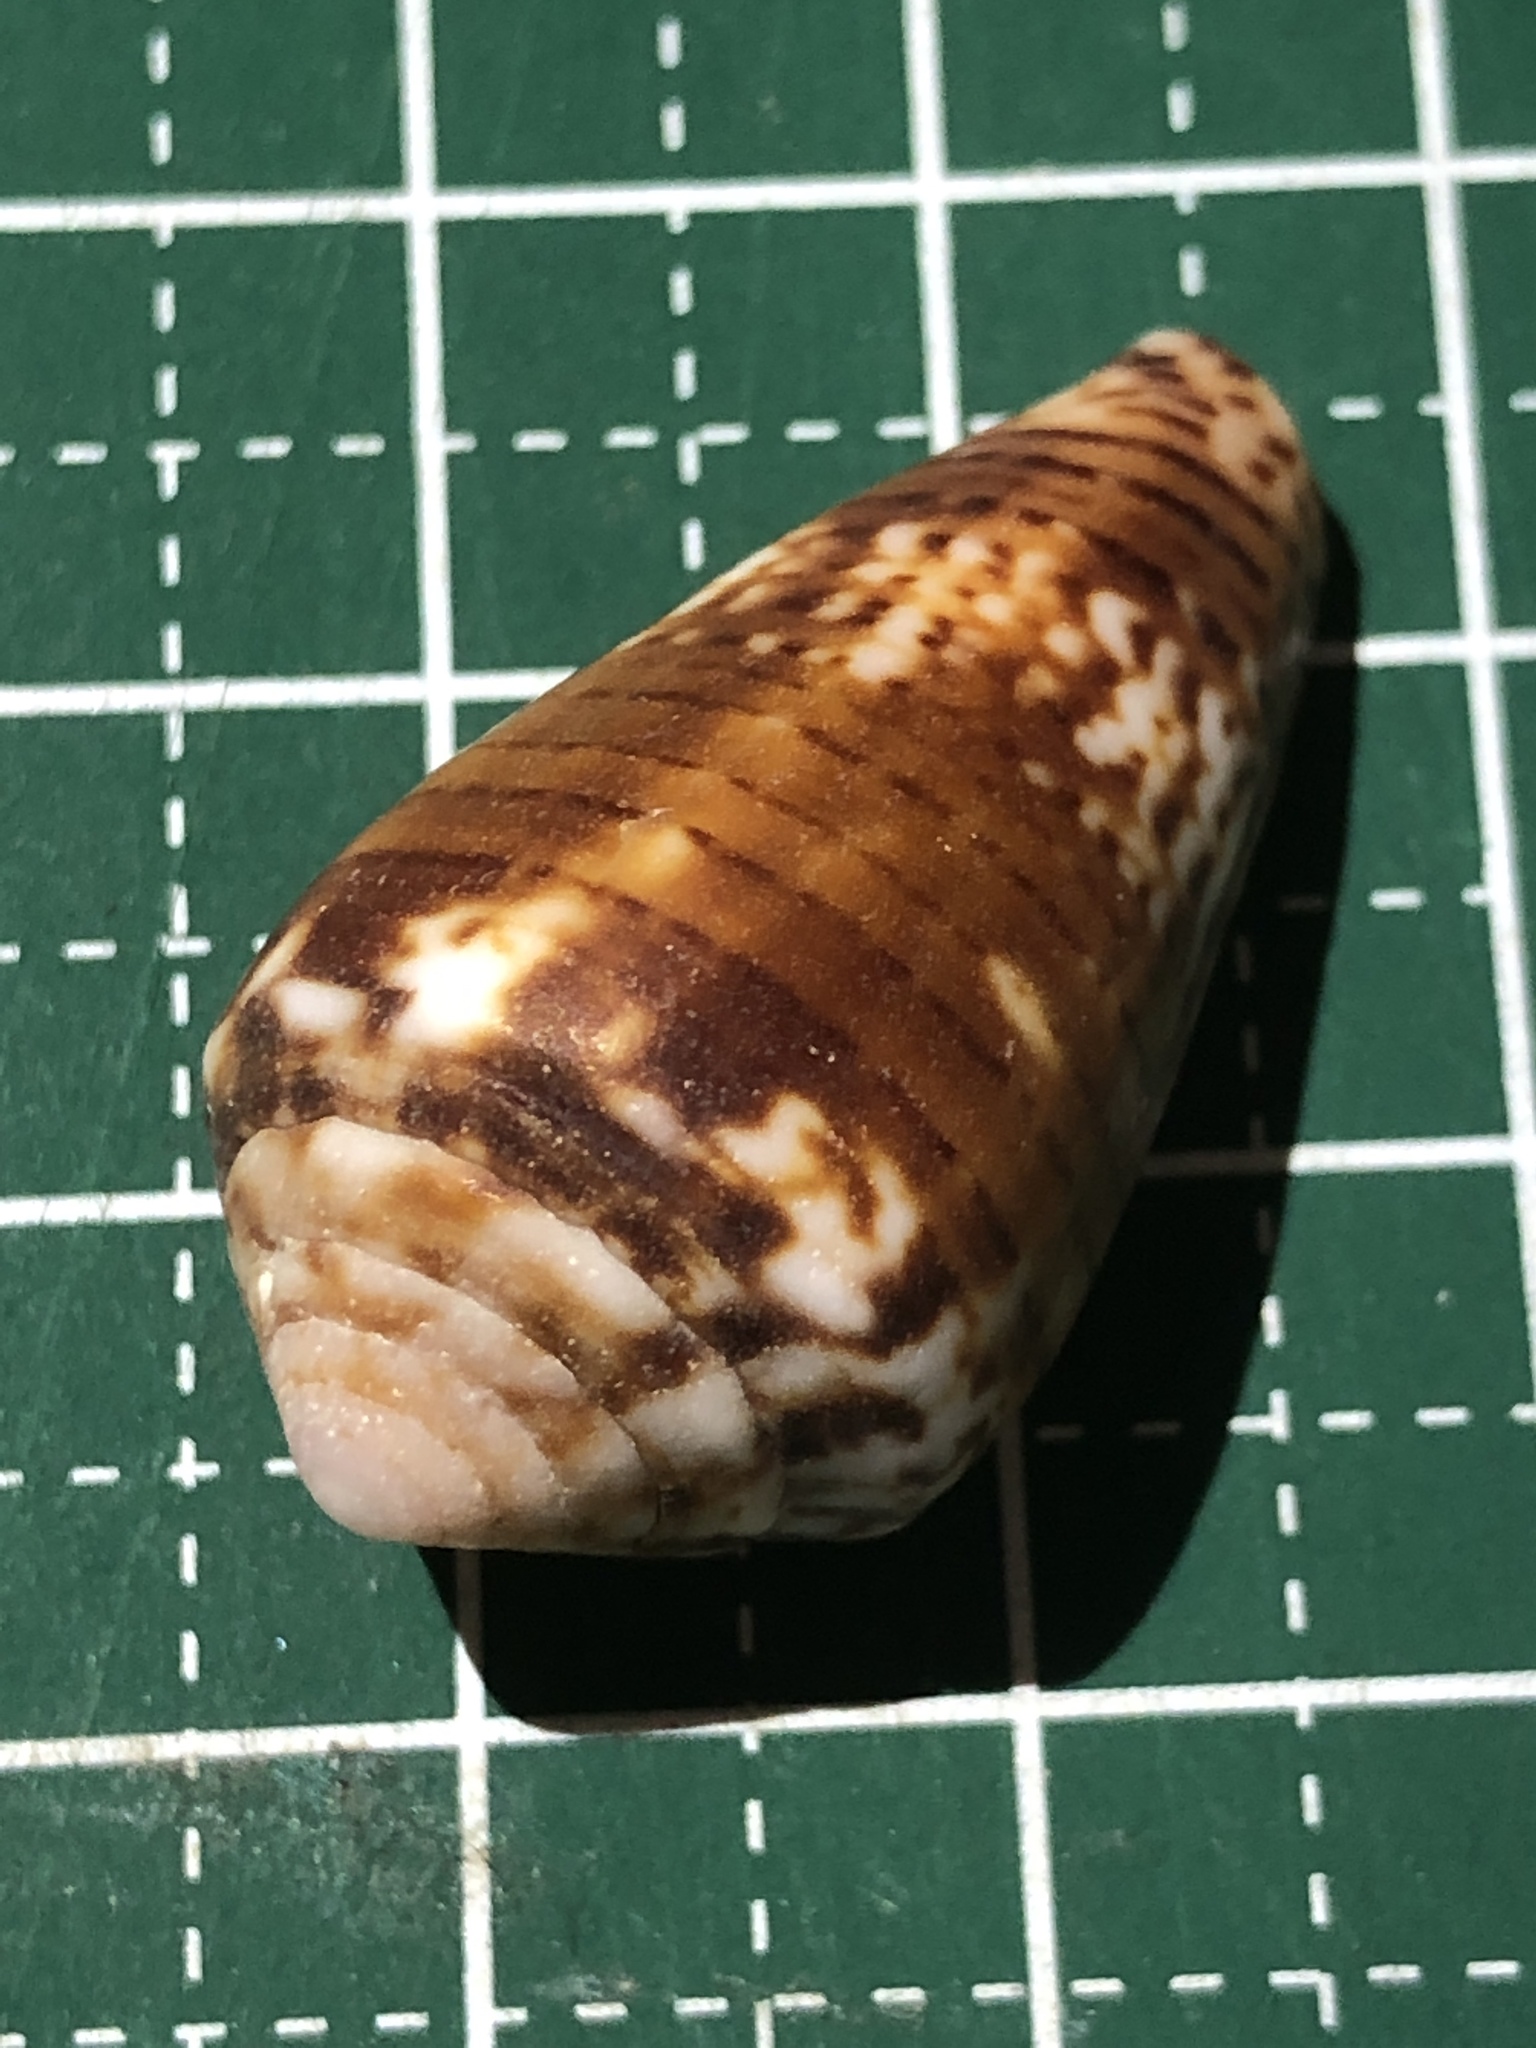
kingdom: Animalia
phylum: Mollusca
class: Gastropoda
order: Neogastropoda
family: Conidae
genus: Conus
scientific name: Conus boeticus
